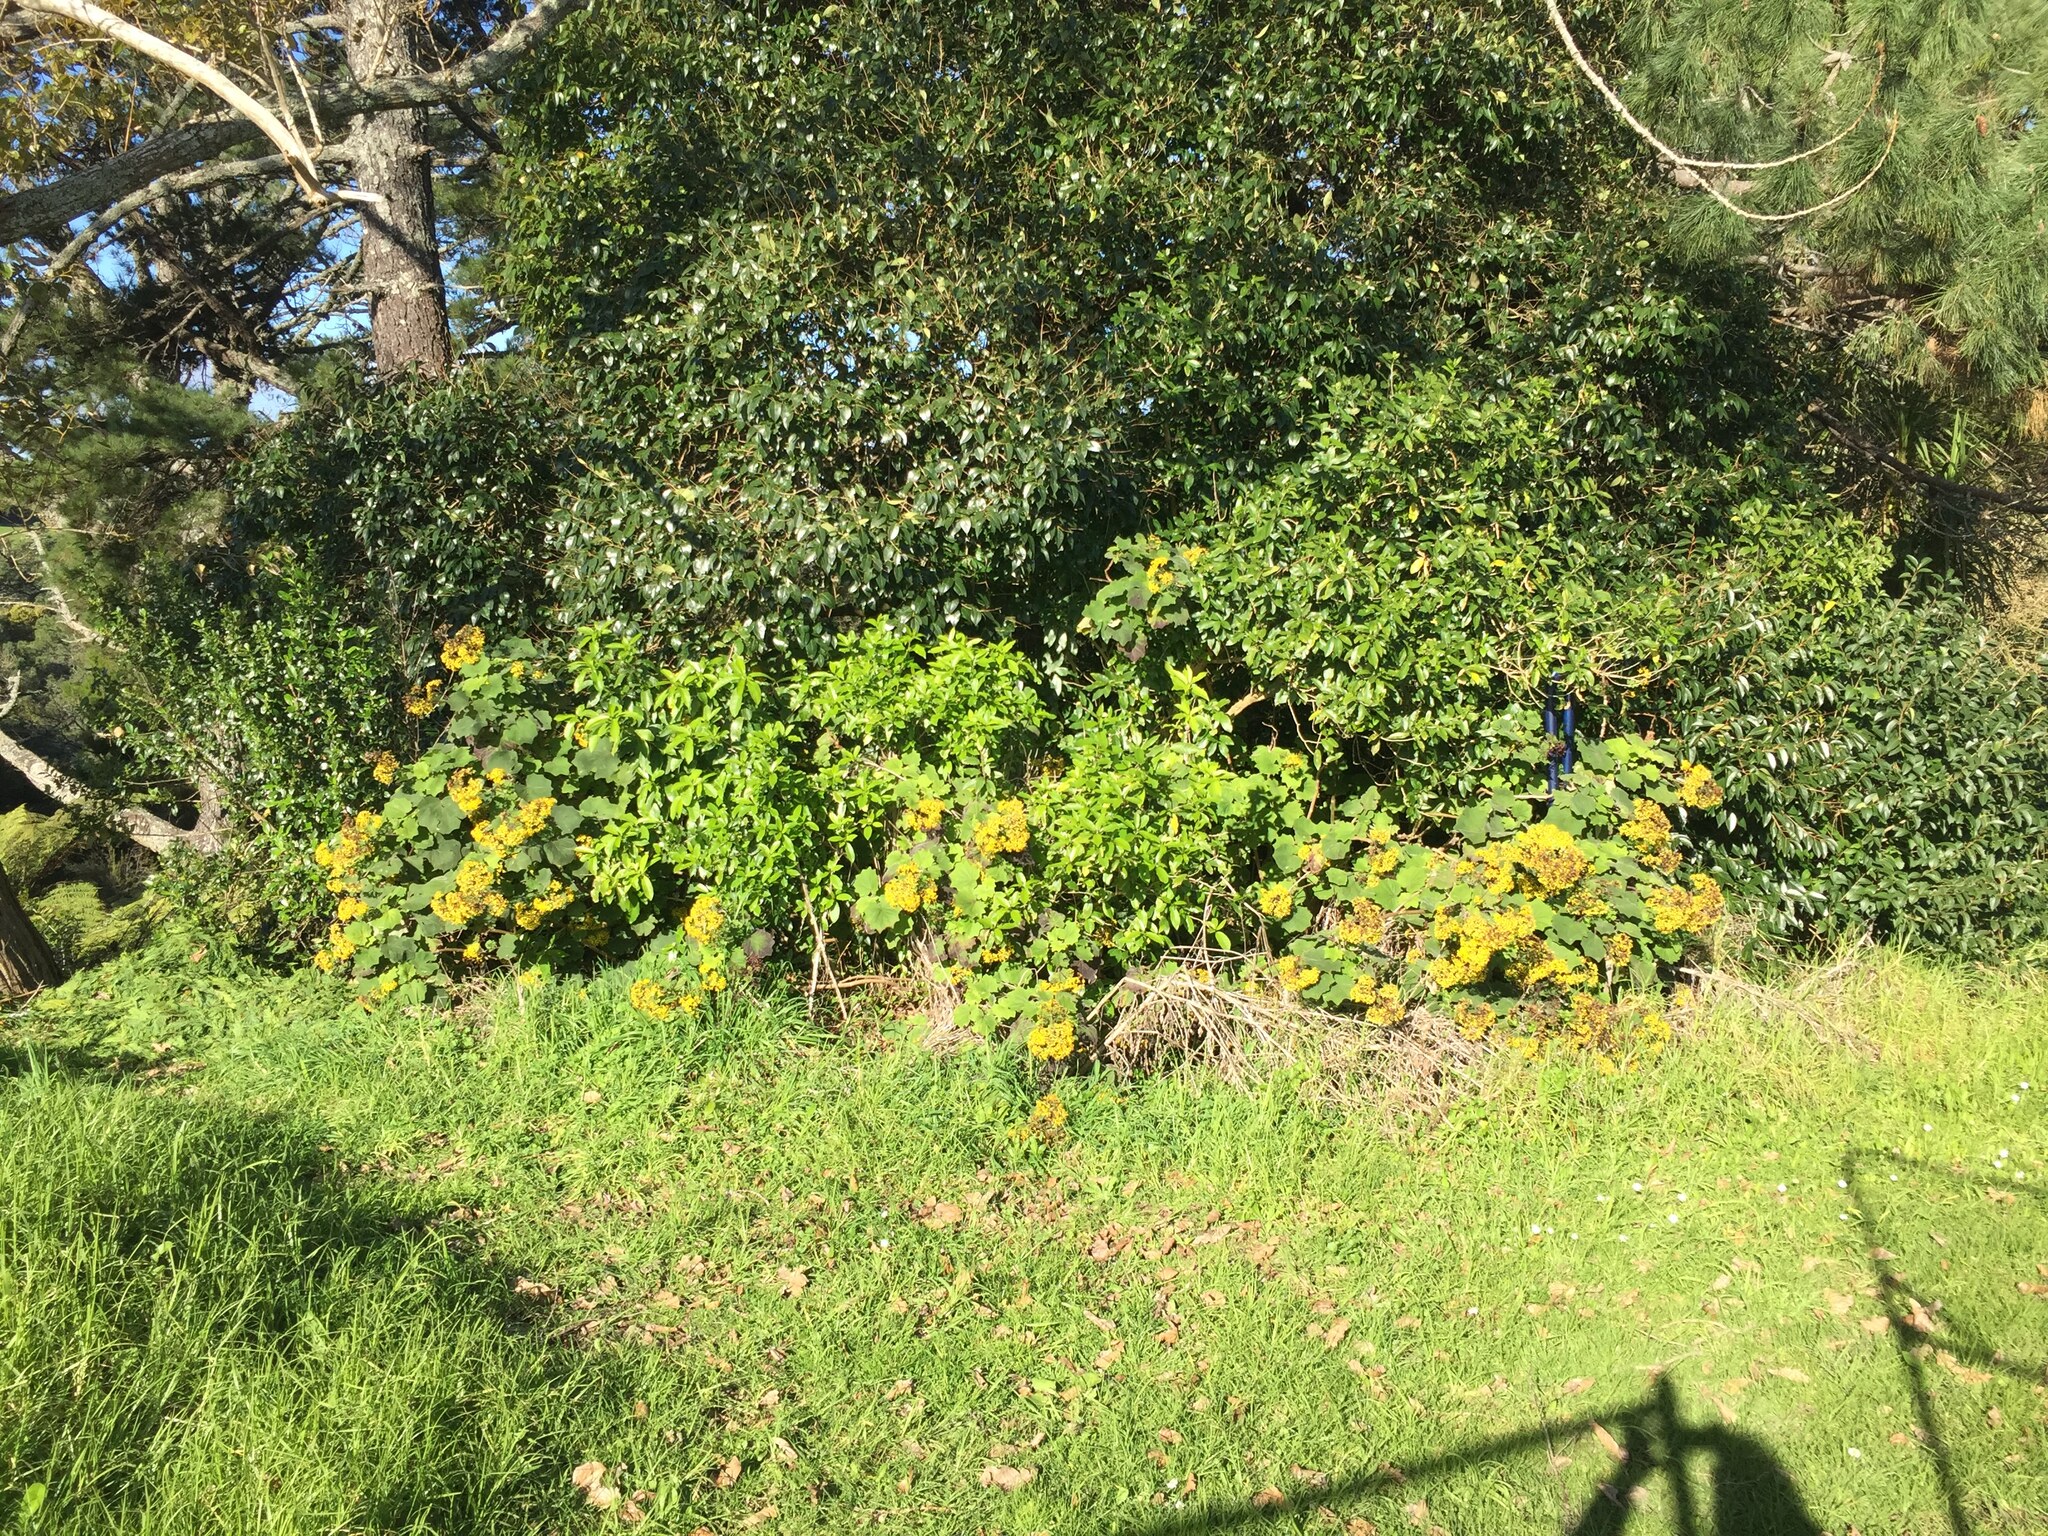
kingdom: Plantae
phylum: Tracheophyta
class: Magnoliopsida
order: Asterales
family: Asteraceae
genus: Roldana
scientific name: Roldana petasitis
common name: California-geranium
